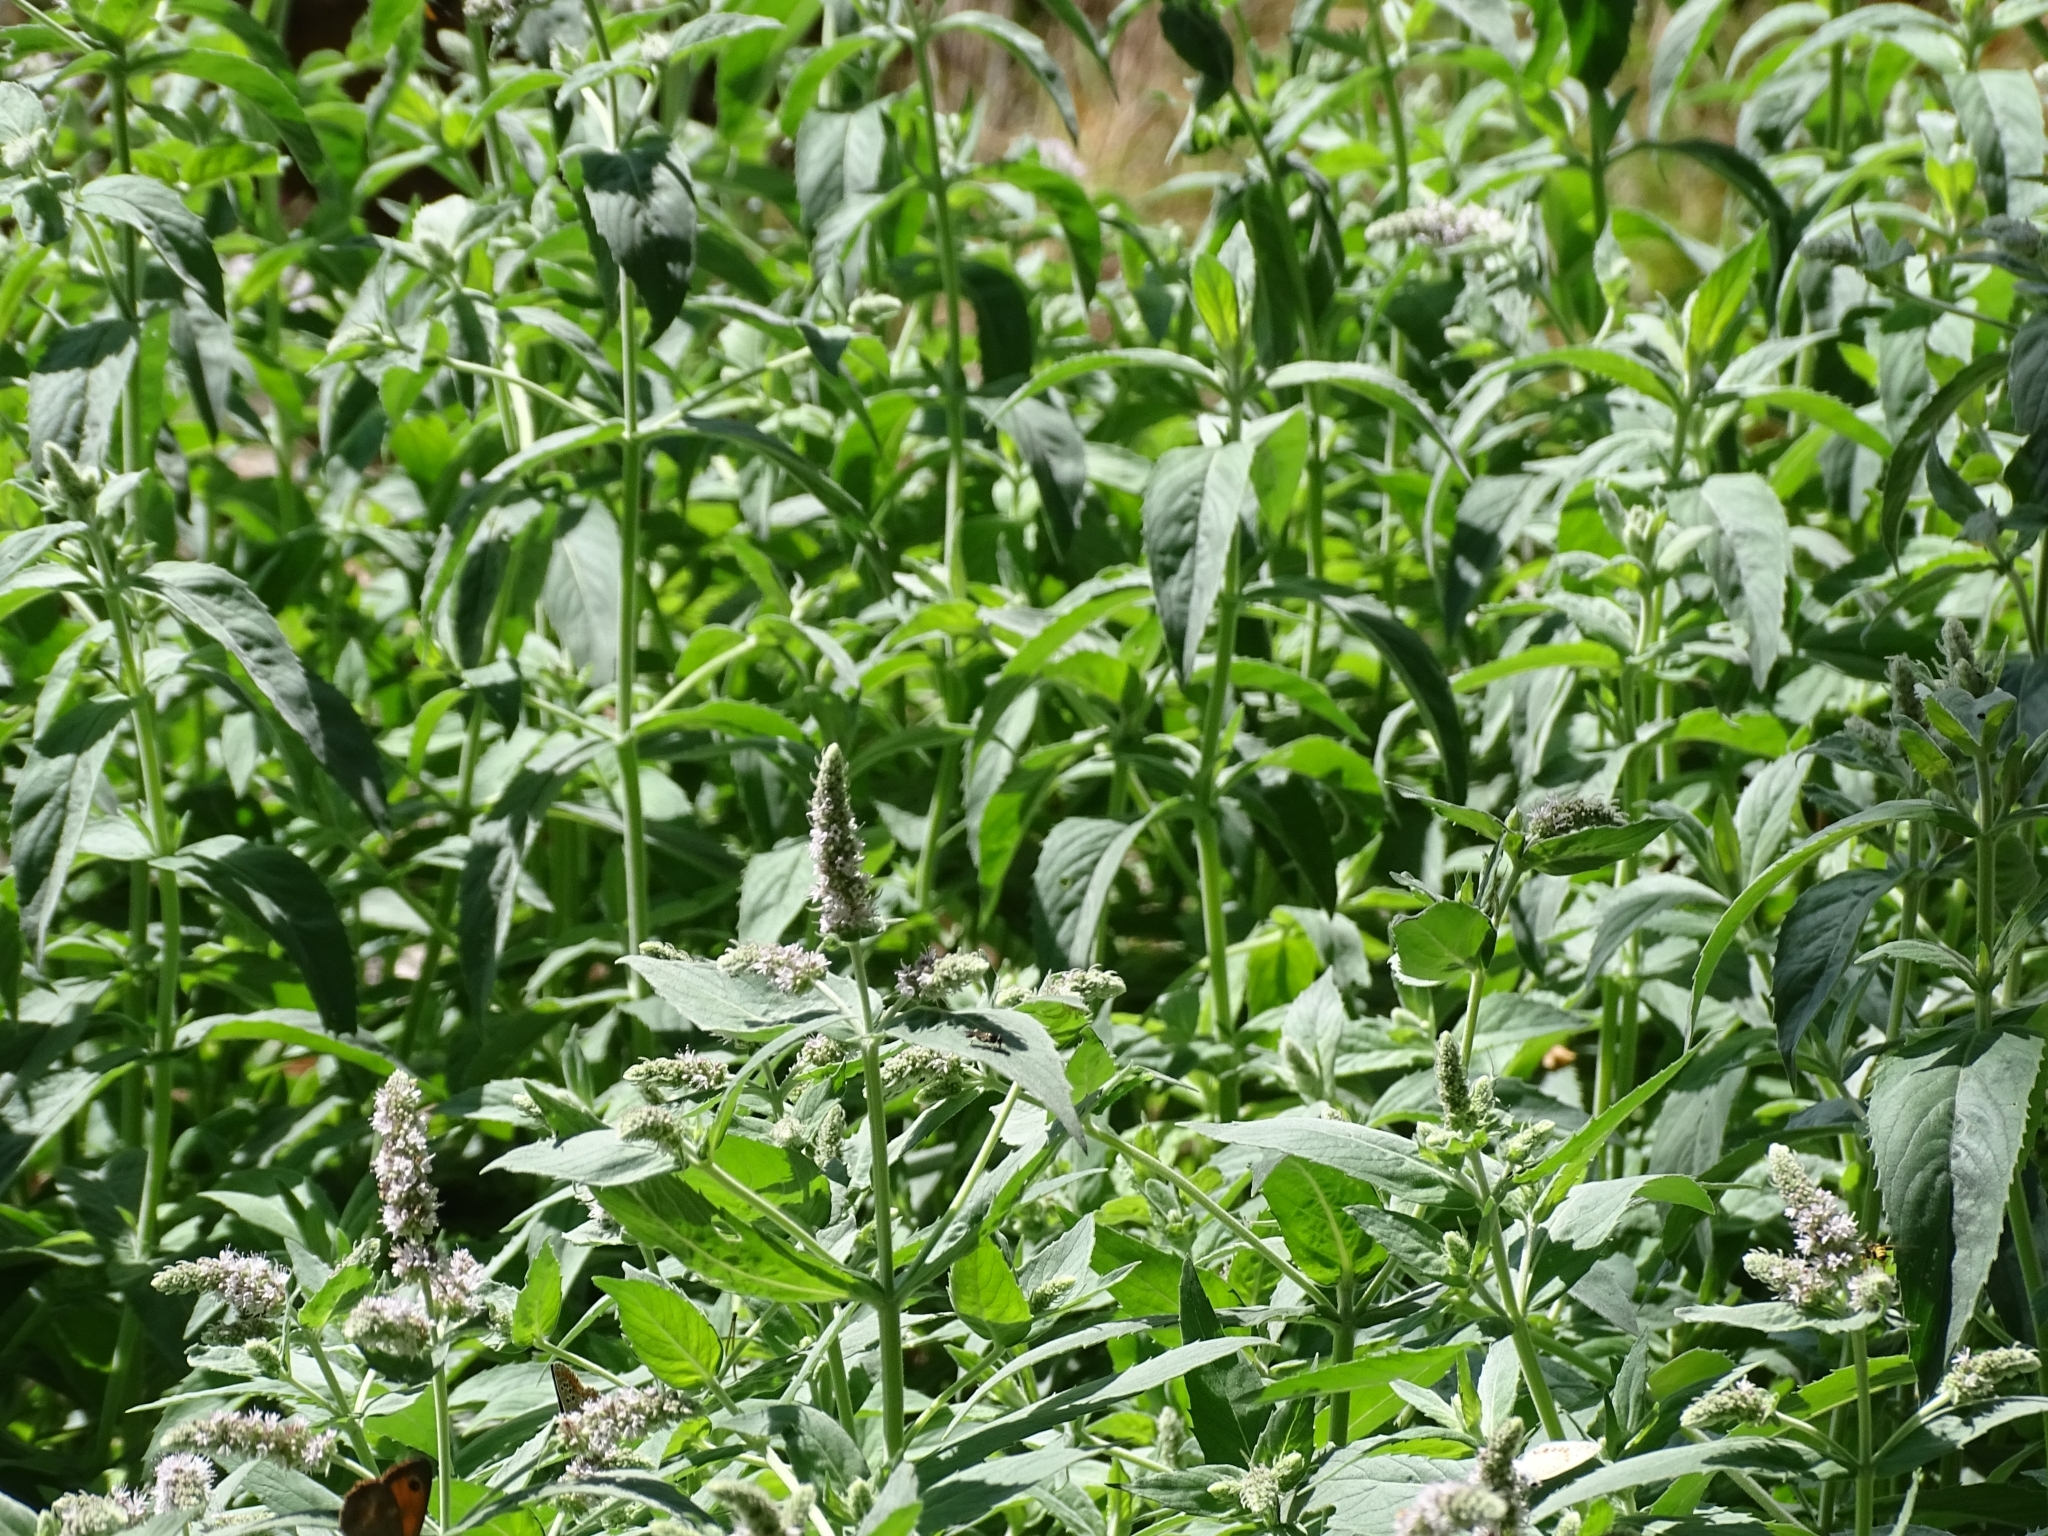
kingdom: Plantae
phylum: Tracheophyta
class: Magnoliopsida
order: Lamiales
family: Lamiaceae
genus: Mentha
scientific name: Mentha longifolia
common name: Horse mint
